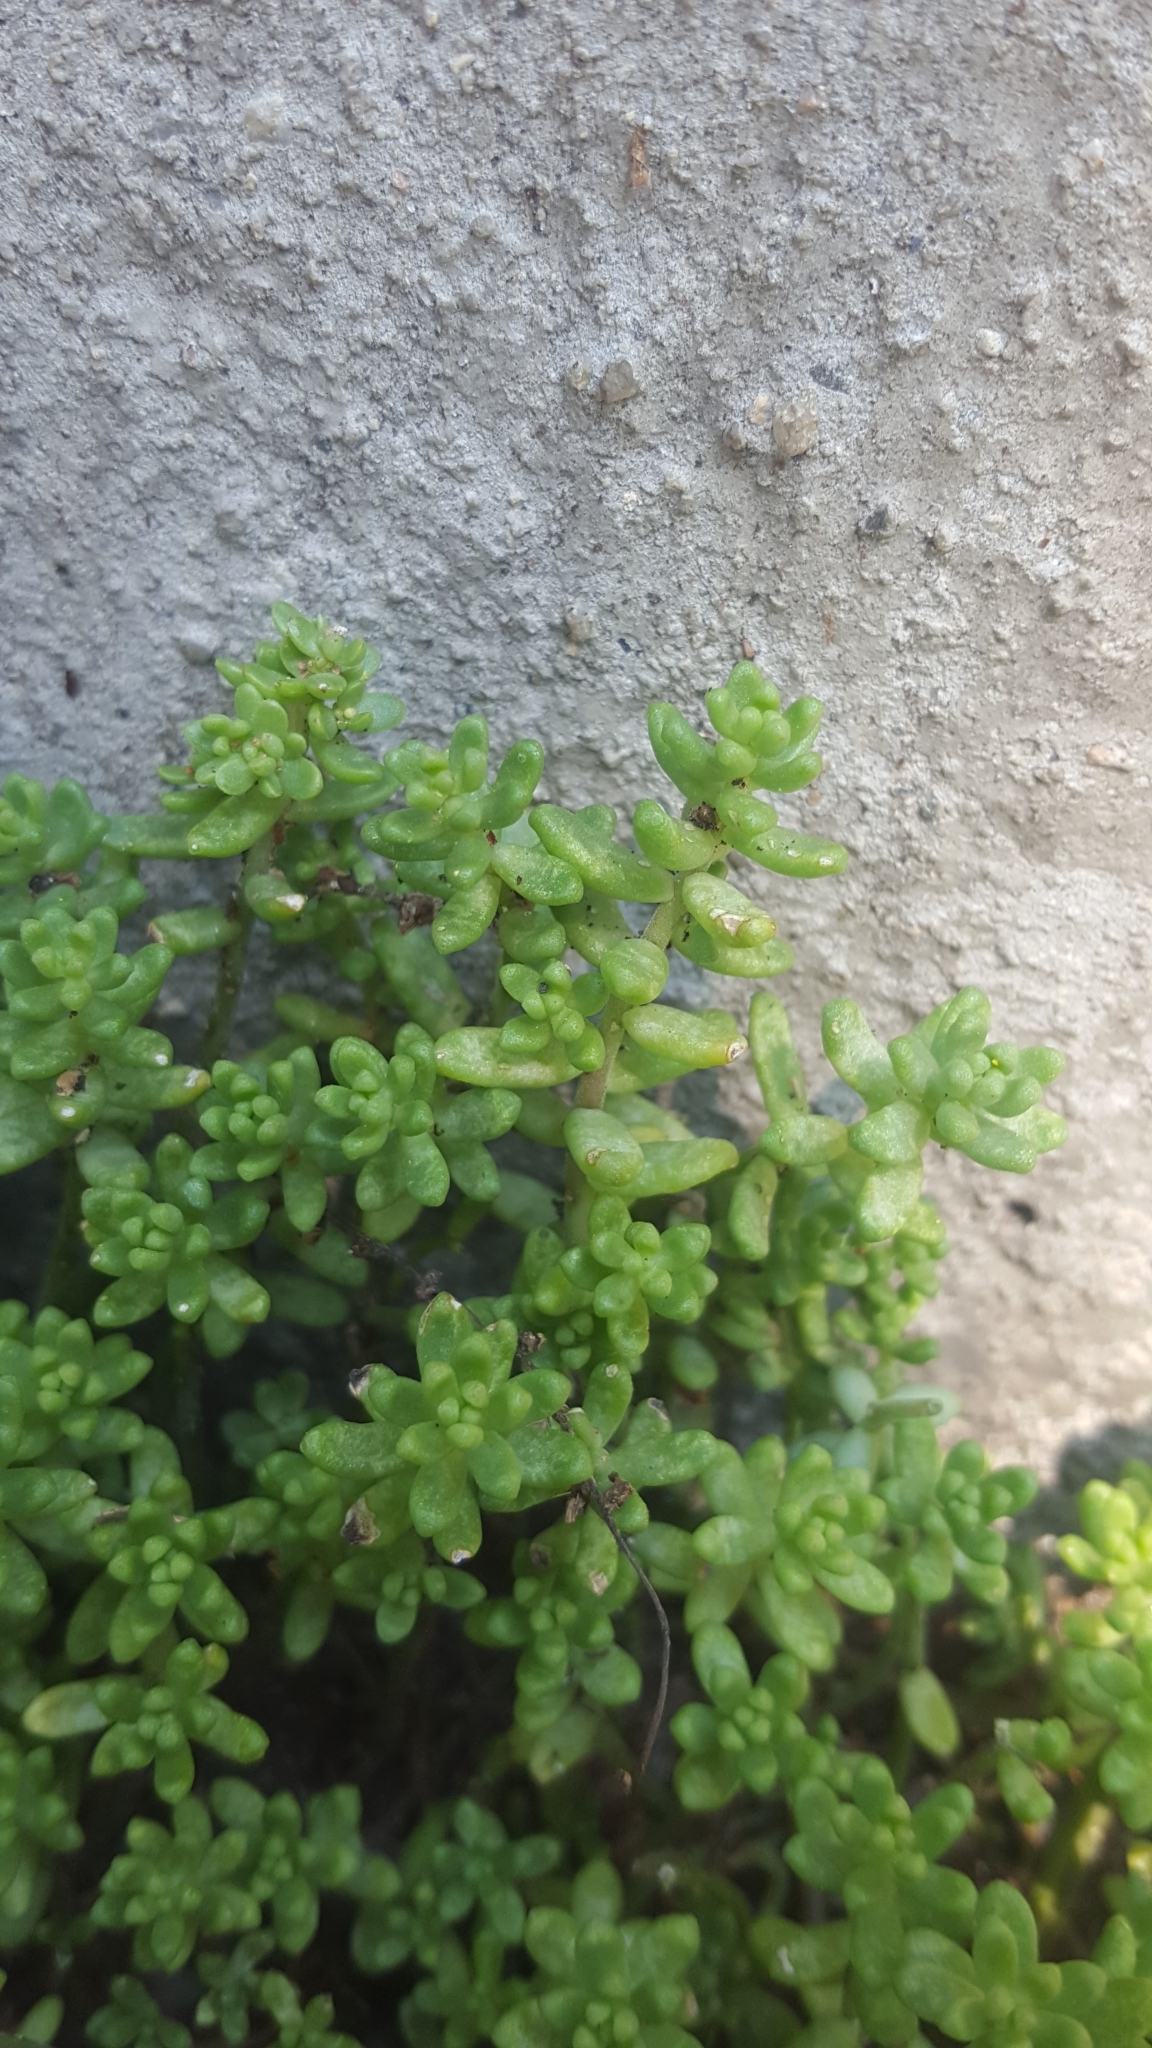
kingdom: Plantae
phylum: Tracheophyta
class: Magnoliopsida
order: Saxifragales
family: Crassulaceae
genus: Sedum
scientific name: Sedum album
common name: White stonecrop
